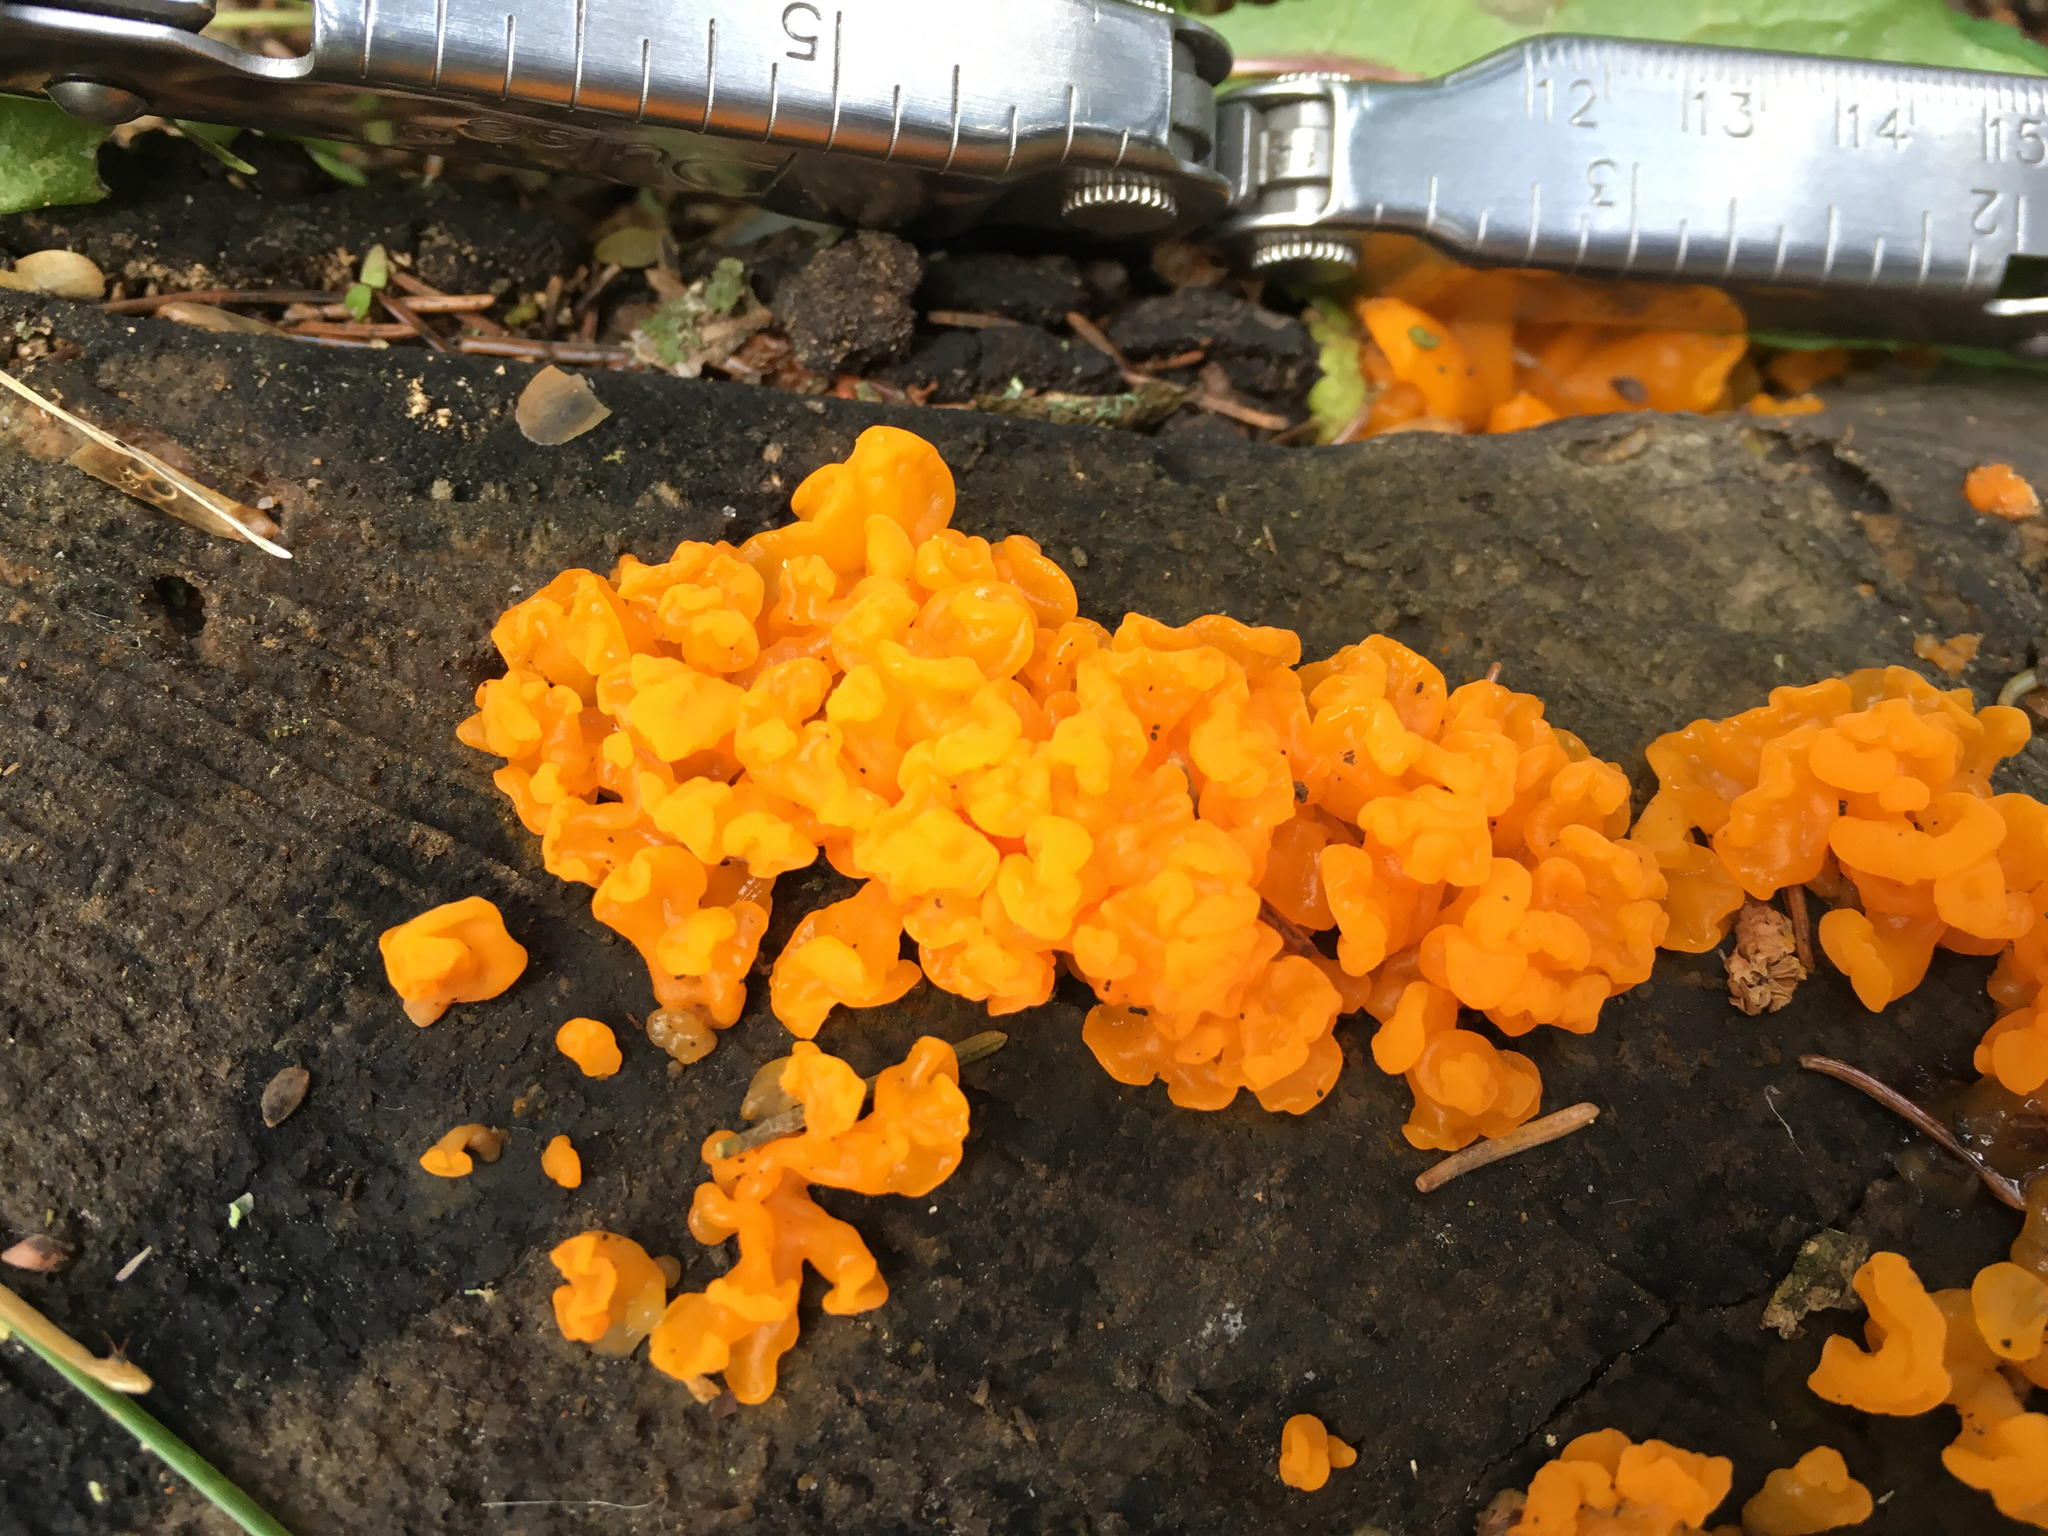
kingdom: Fungi
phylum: Basidiomycota
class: Dacrymycetes
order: Dacrymycetales
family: Dacrymycetaceae
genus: Dacrymyces
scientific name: Dacrymyces chrysospermus
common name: Orange jelly spot
